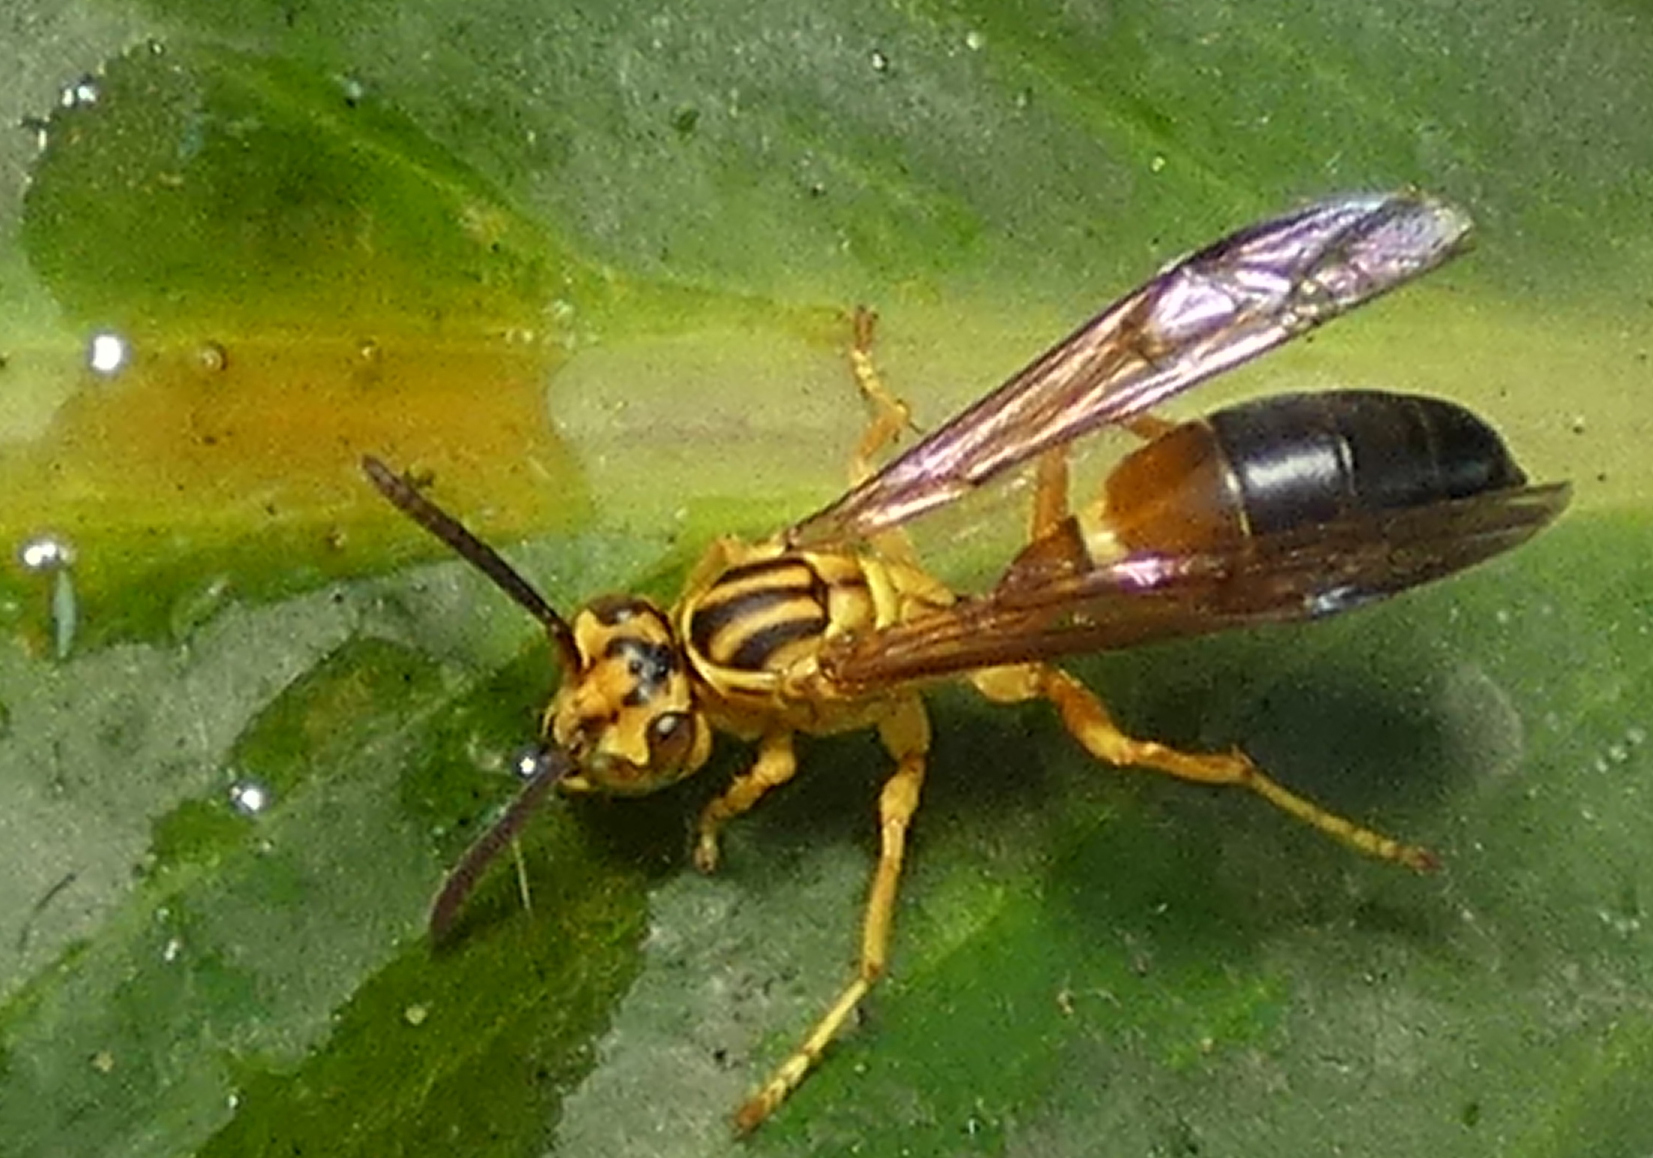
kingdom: Animalia
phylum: Arthropoda
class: Insecta
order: Hymenoptera
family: Vespidae
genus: Agelaia
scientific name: Agelaia pallipes
